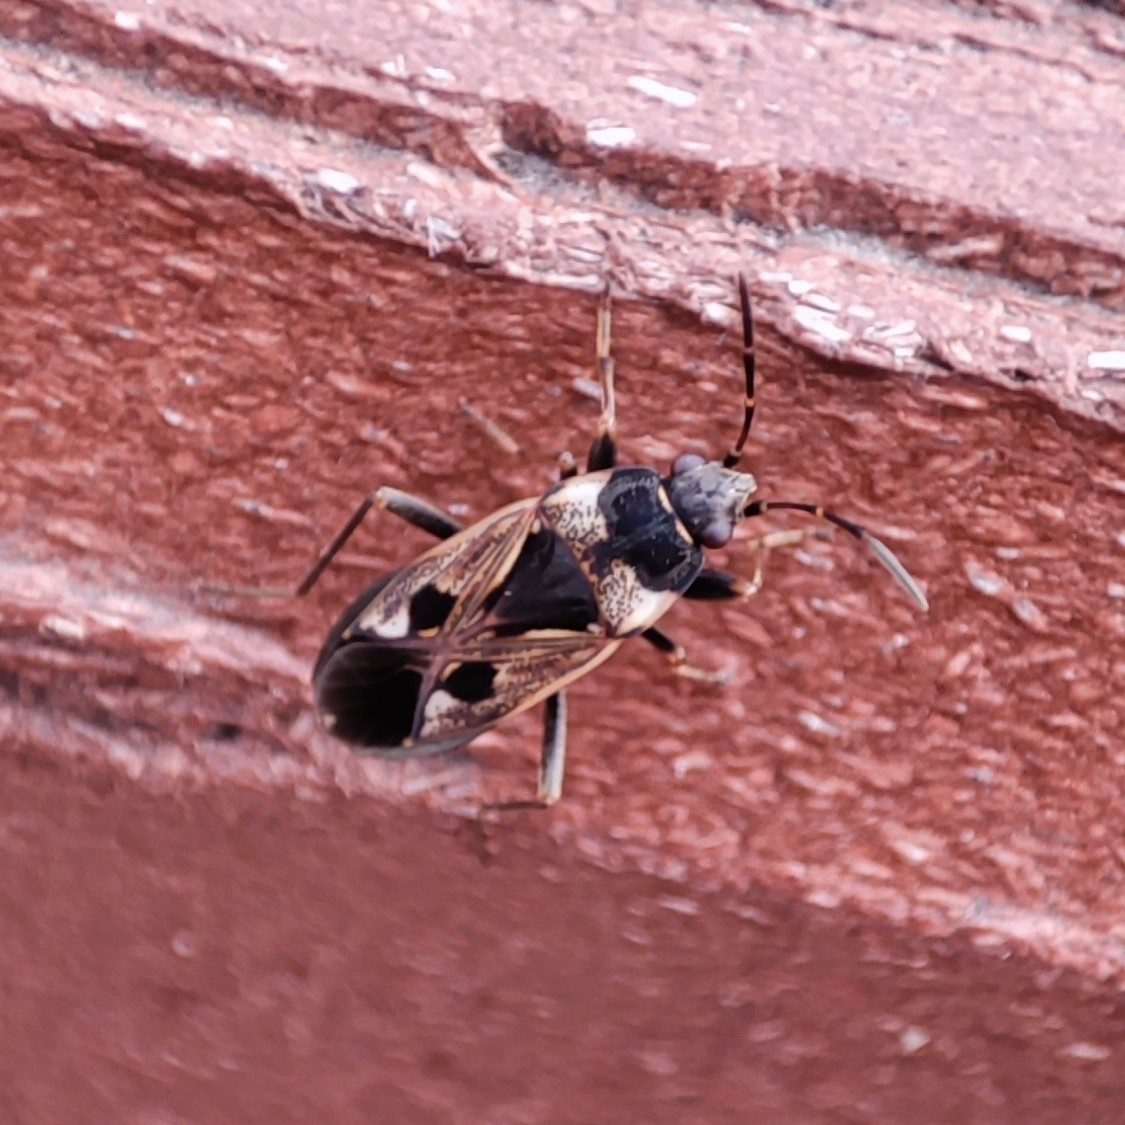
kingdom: Animalia
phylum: Arthropoda
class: Insecta
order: Hemiptera
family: Rhyparochromidae
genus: Rhyparochromus
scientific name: Rhyparochromus vulgaris
